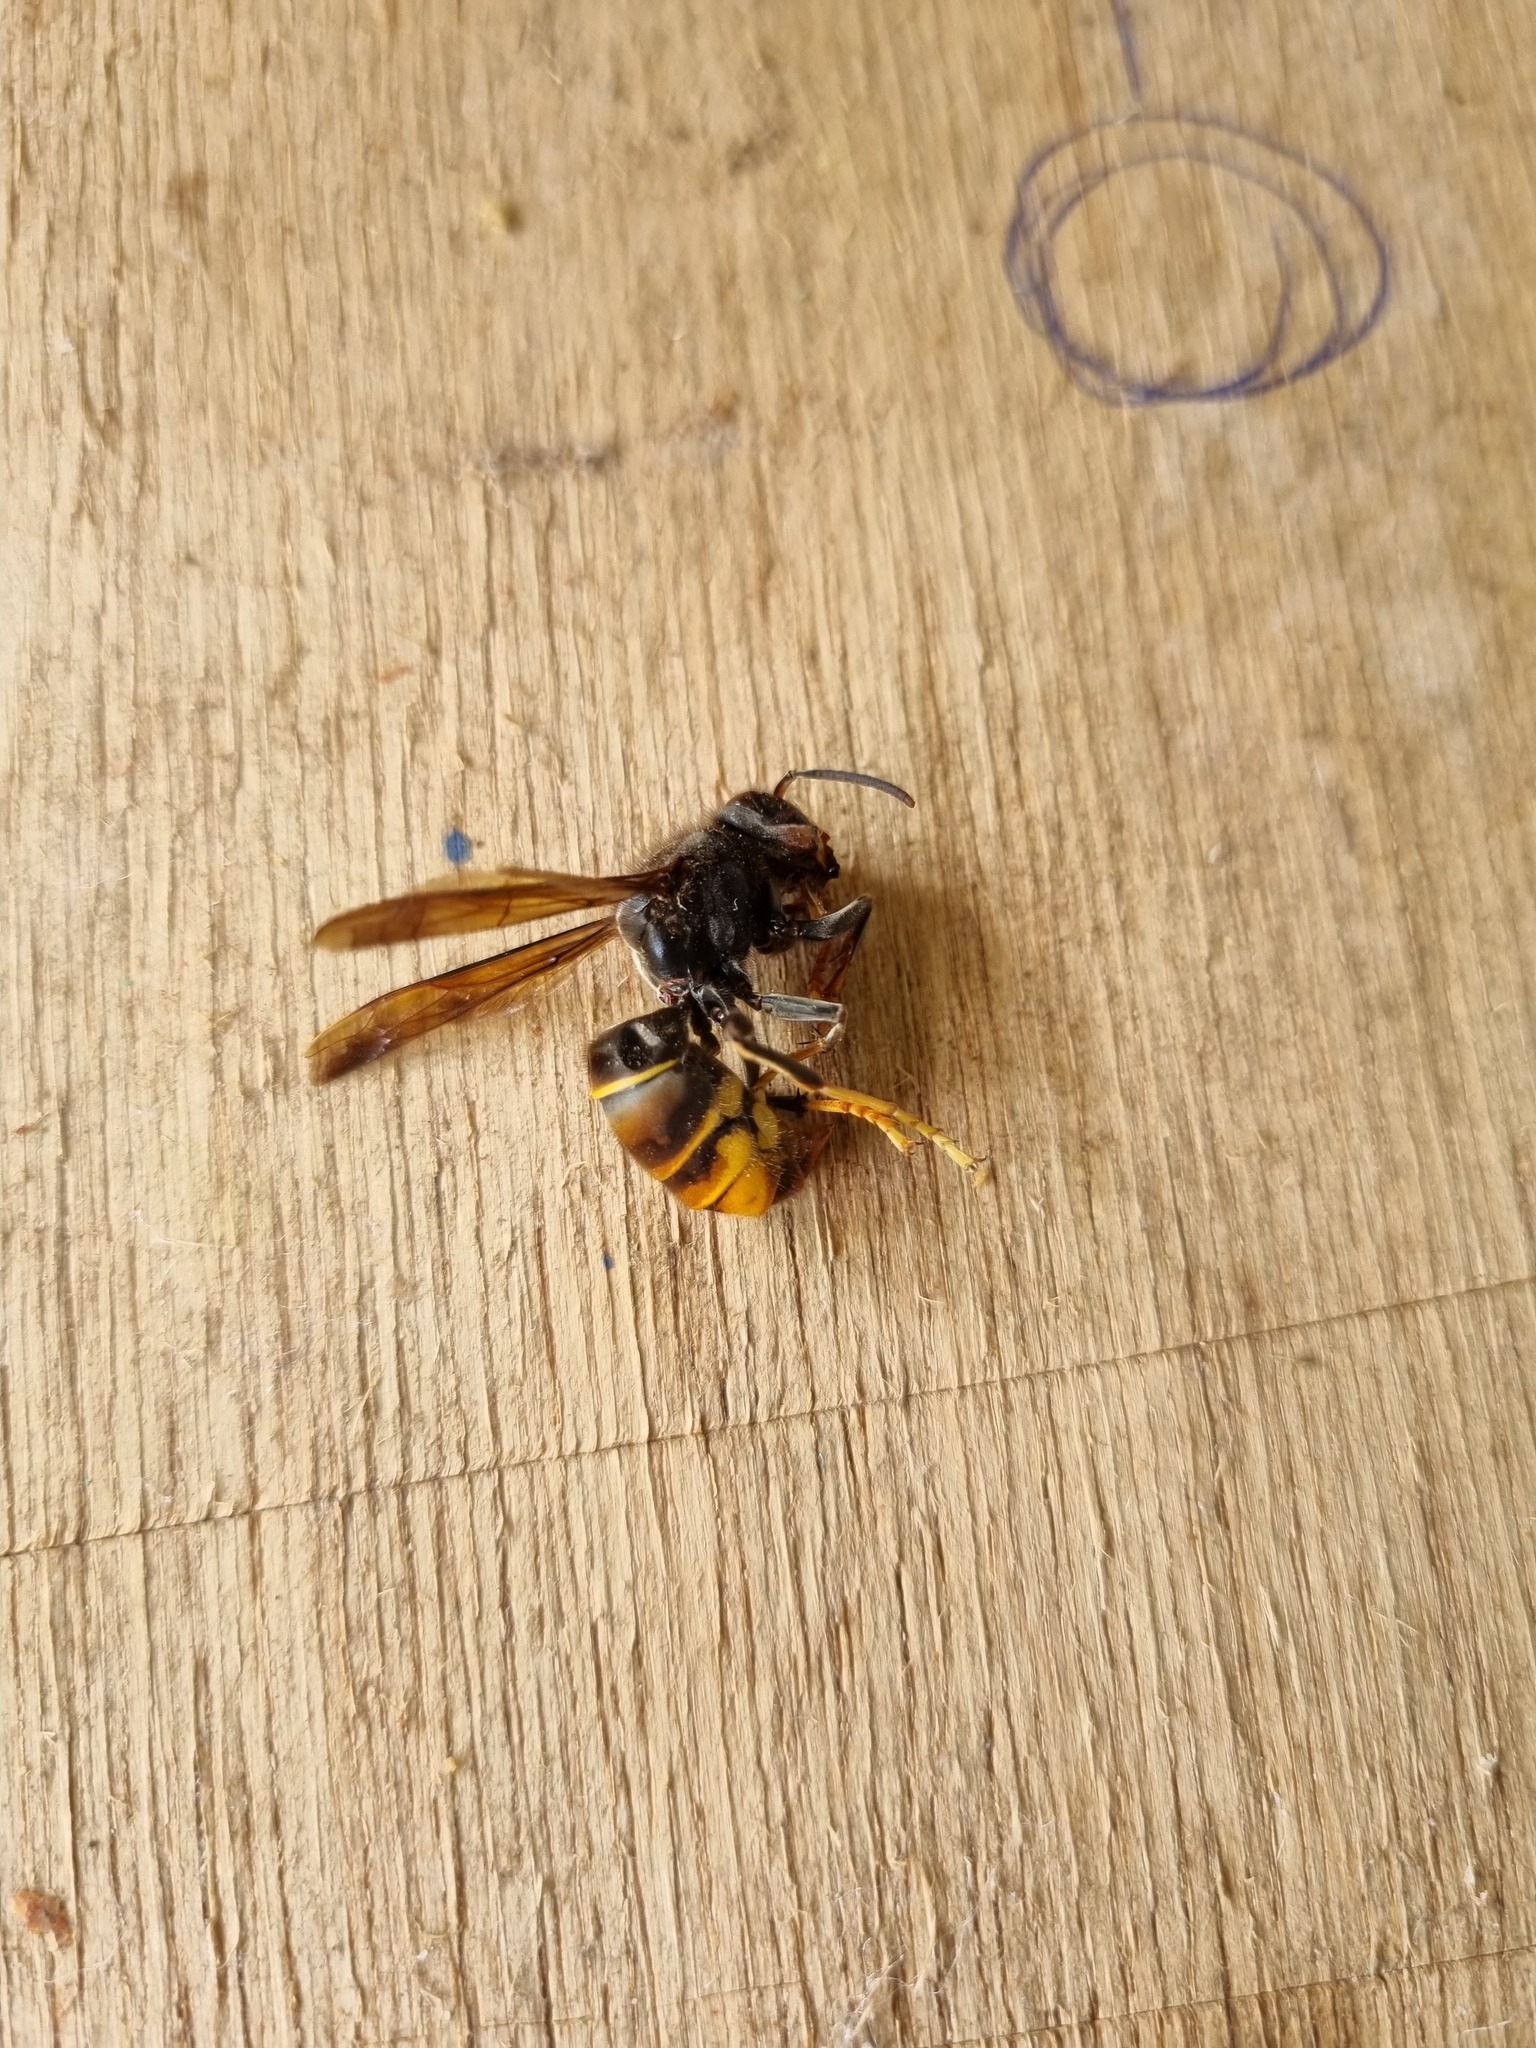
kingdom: Animalia
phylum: Arthropoda
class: Insecta
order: Hymenoptera
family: Vespidae
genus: Vespa
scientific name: Vespa velutina
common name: Asian hornet
